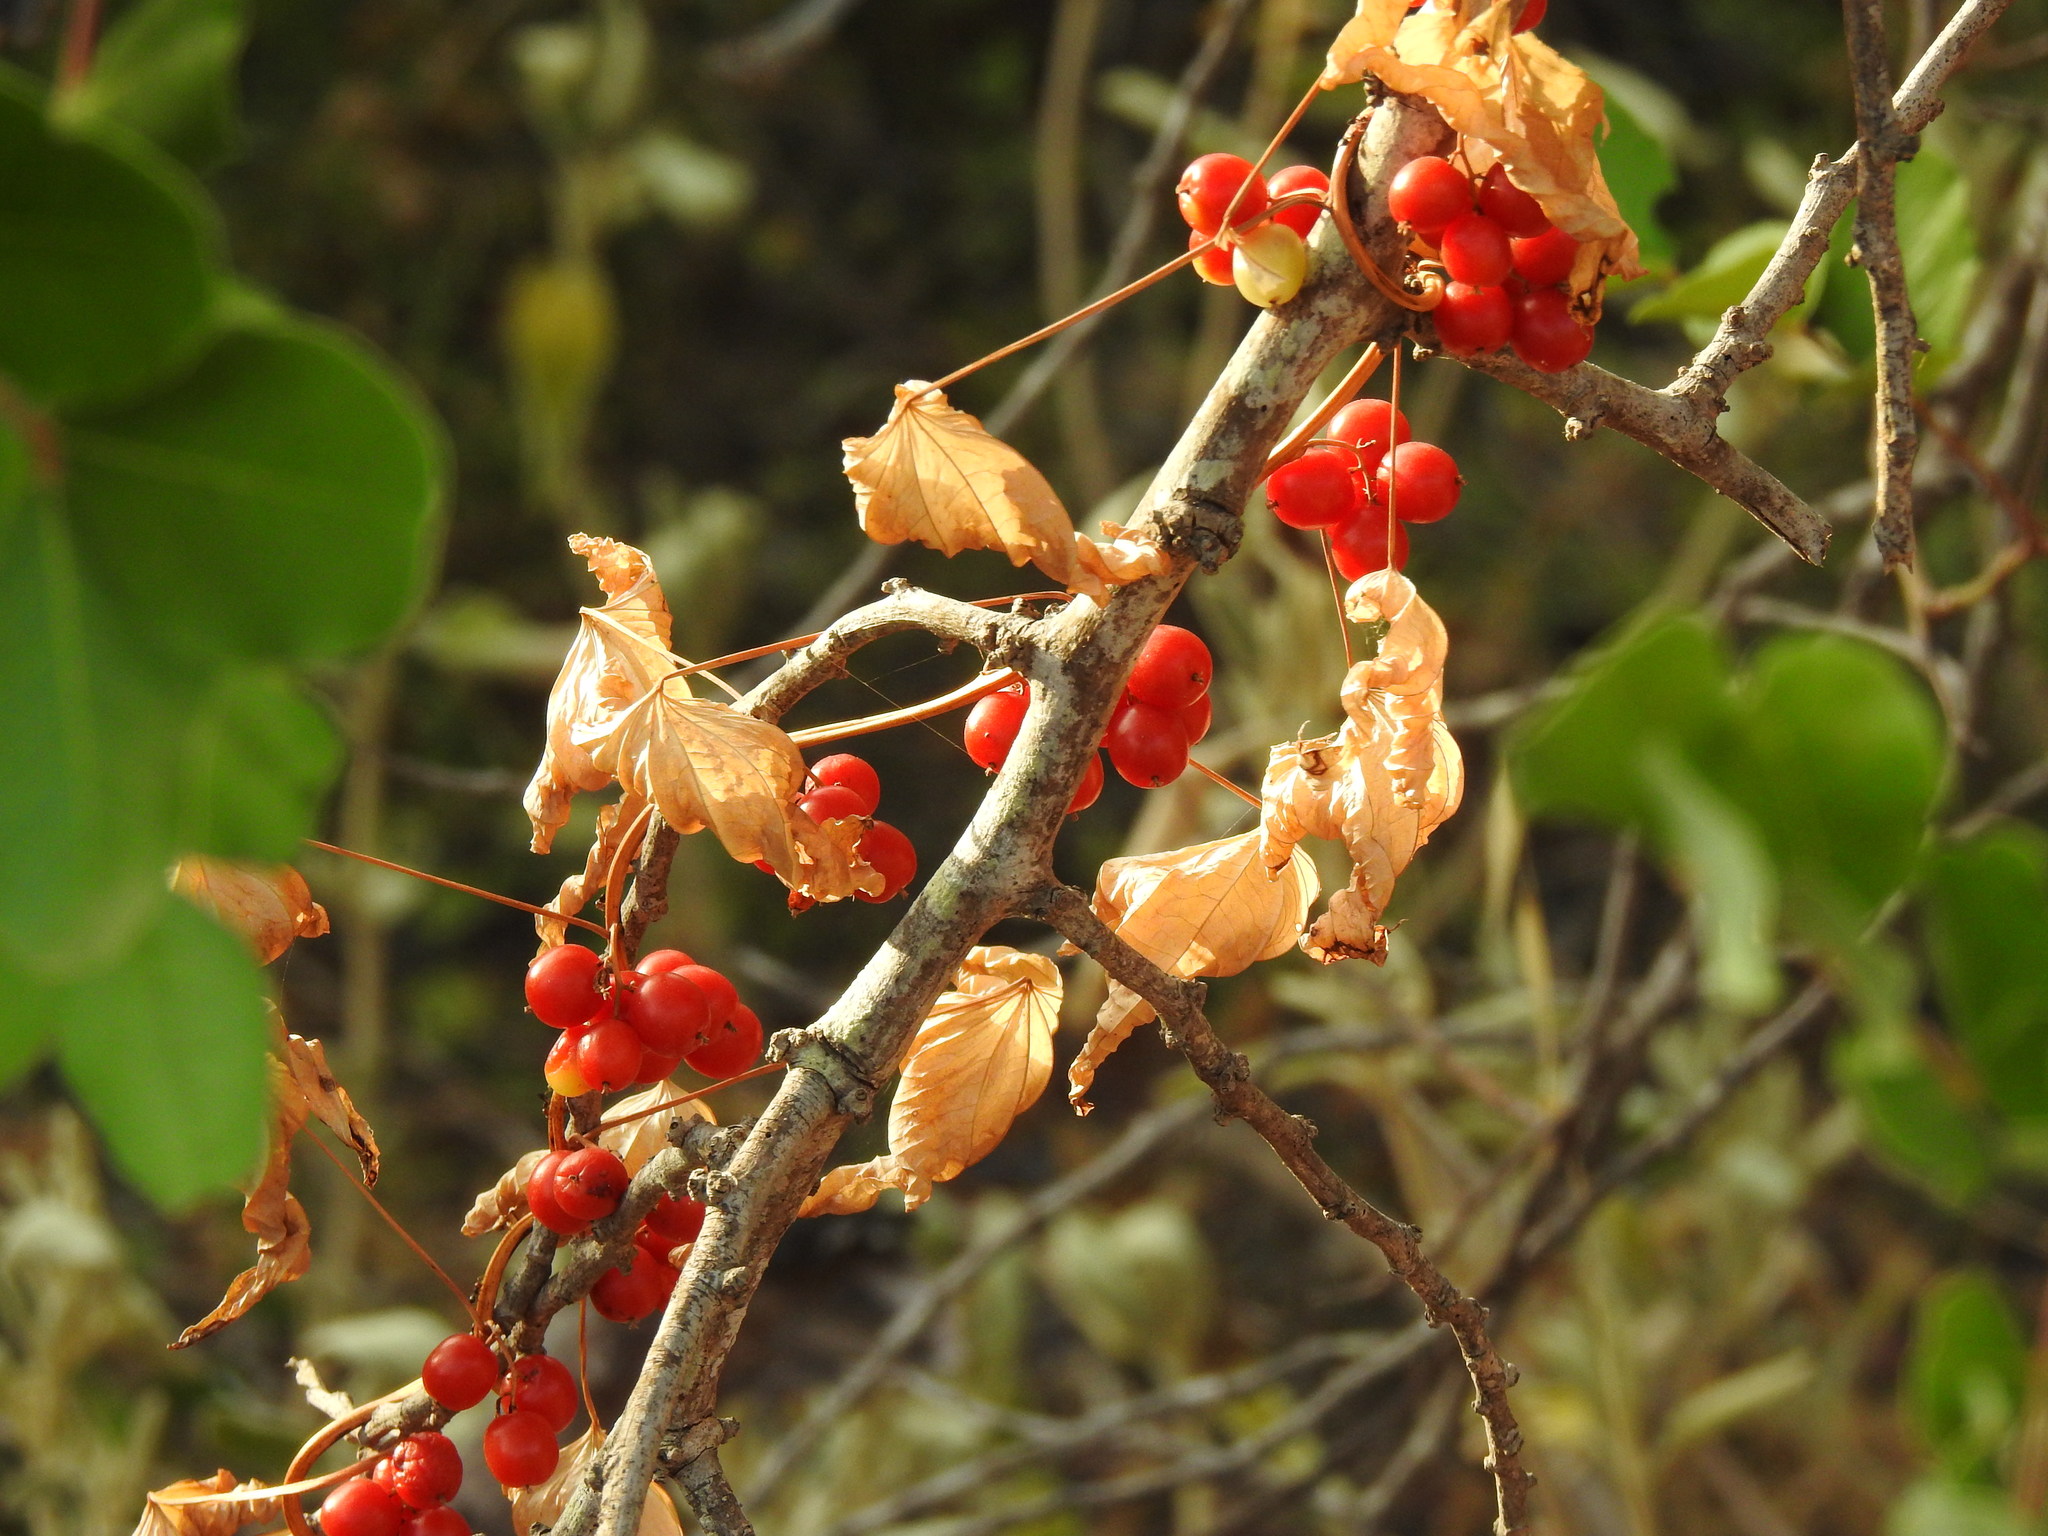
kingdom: Plantae
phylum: Tracheophyta
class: Liliopsida
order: Dioscoreales
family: Dioscoreaceae
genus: Dioscorea
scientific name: Dioscorea communis
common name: Black-bindweed
